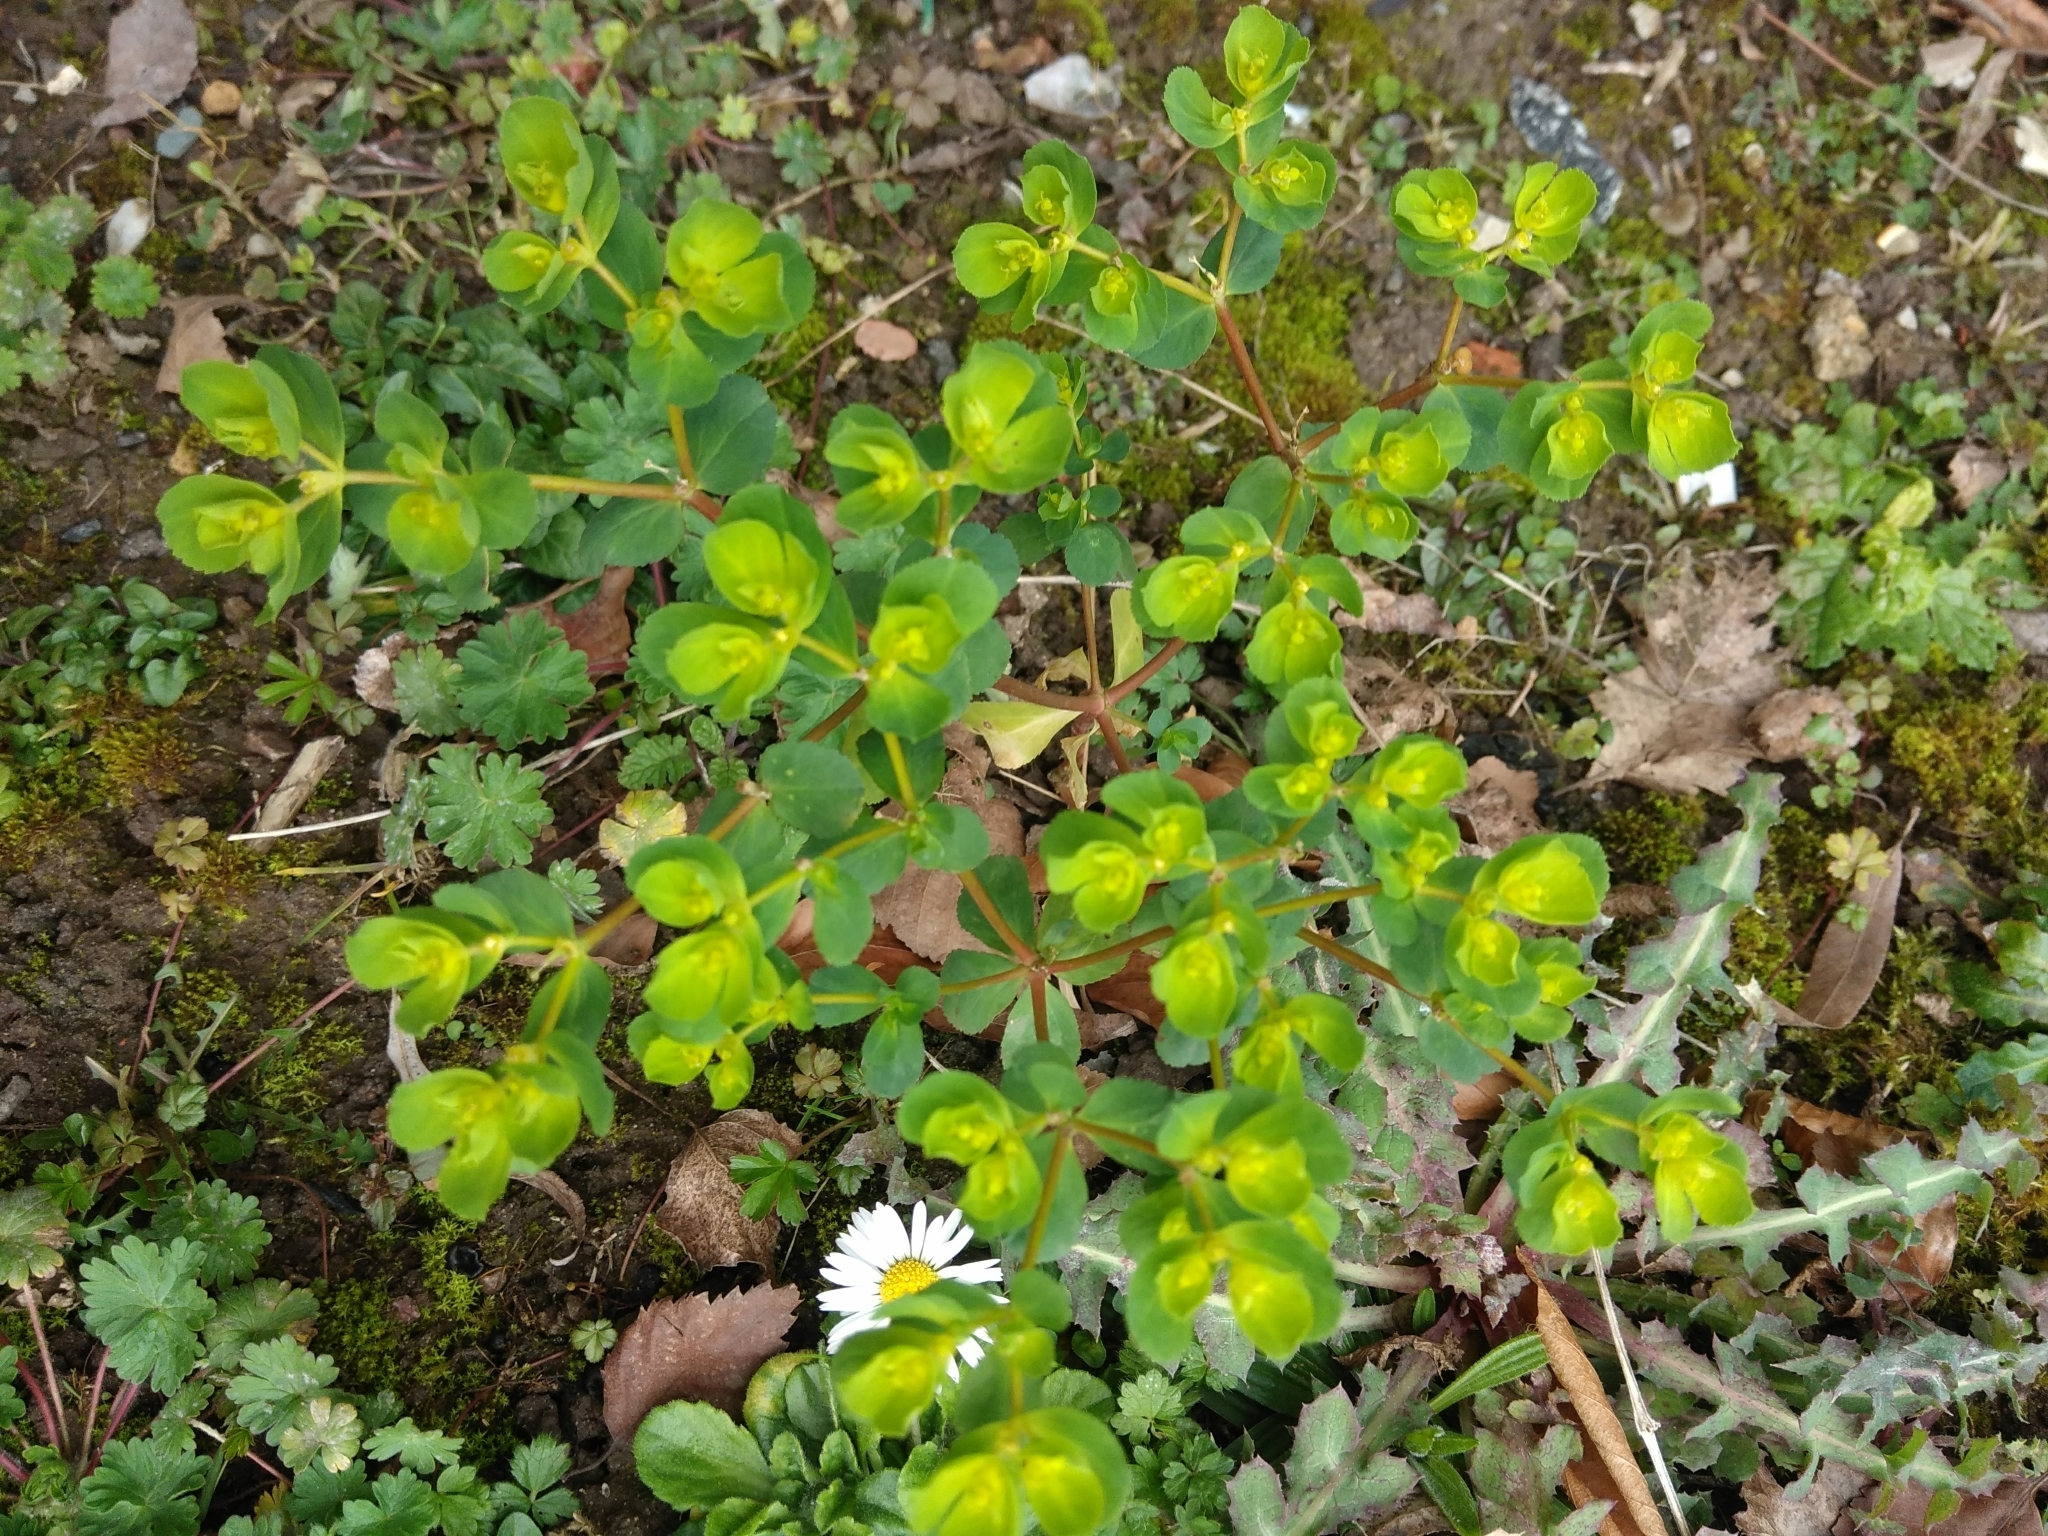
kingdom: Plantae
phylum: Tracheophyta
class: Magnoliopsida
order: Malpighiales
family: Euphorbiaceae
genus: Euphorbia
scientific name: Euphorbia helioscopia
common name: Sun spurge
